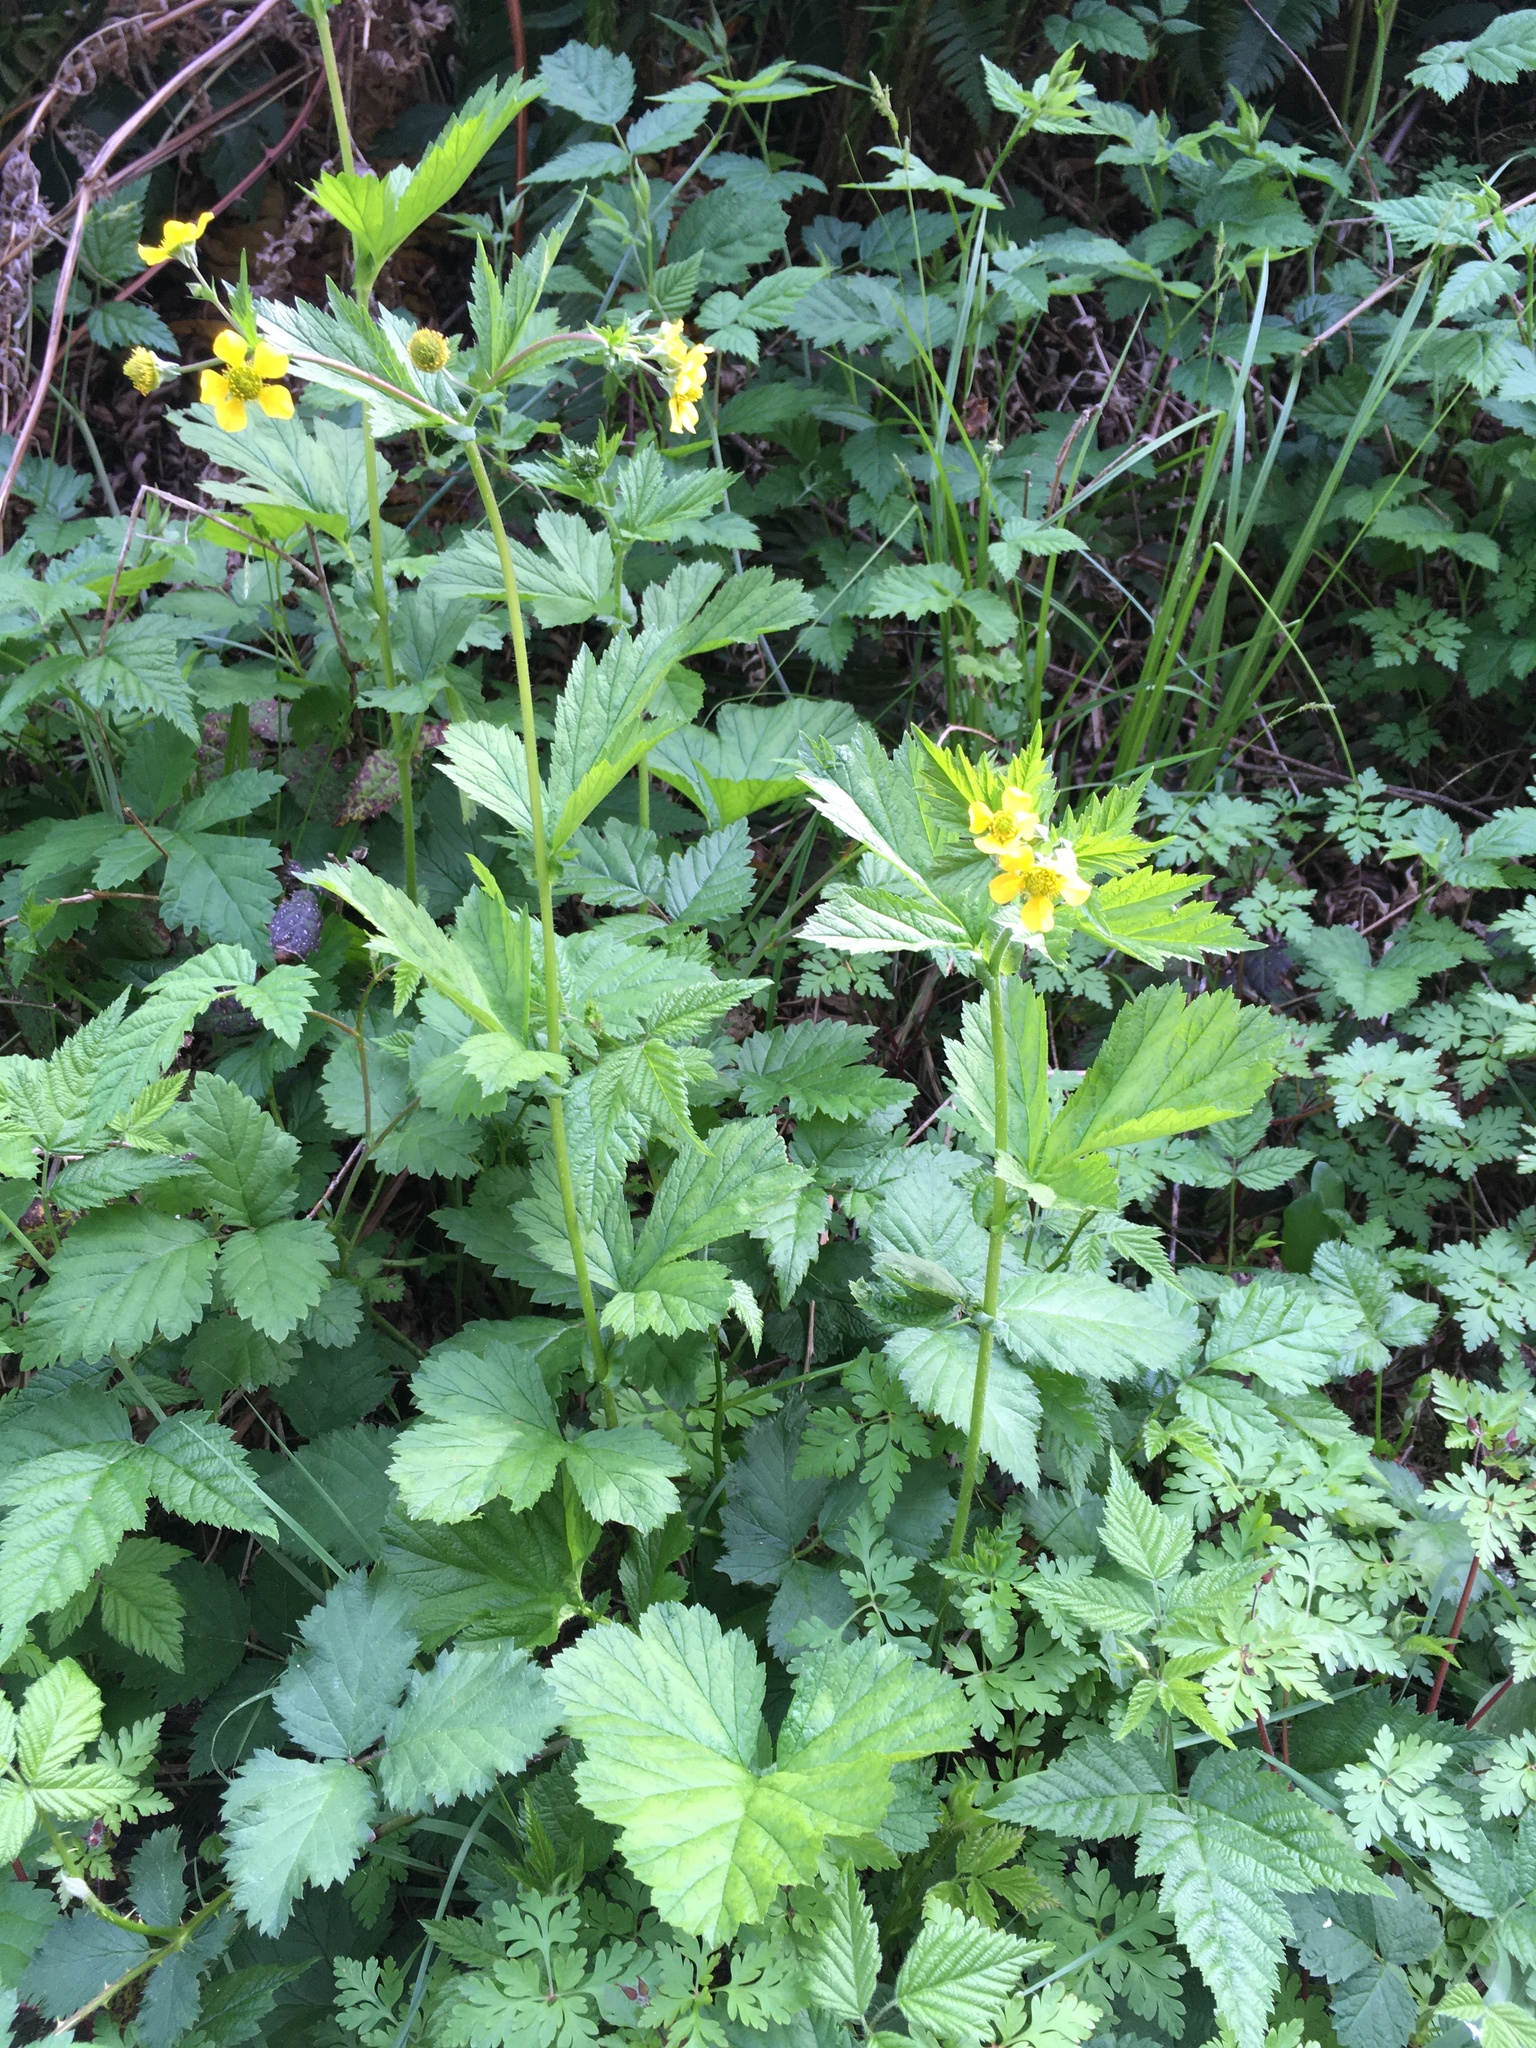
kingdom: Plantae
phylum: Tracheophyta
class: Magnoliopsida
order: Rosales
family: Rosaceae
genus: Geum
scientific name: Geum macrophyllum
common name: Large-leaved avens
